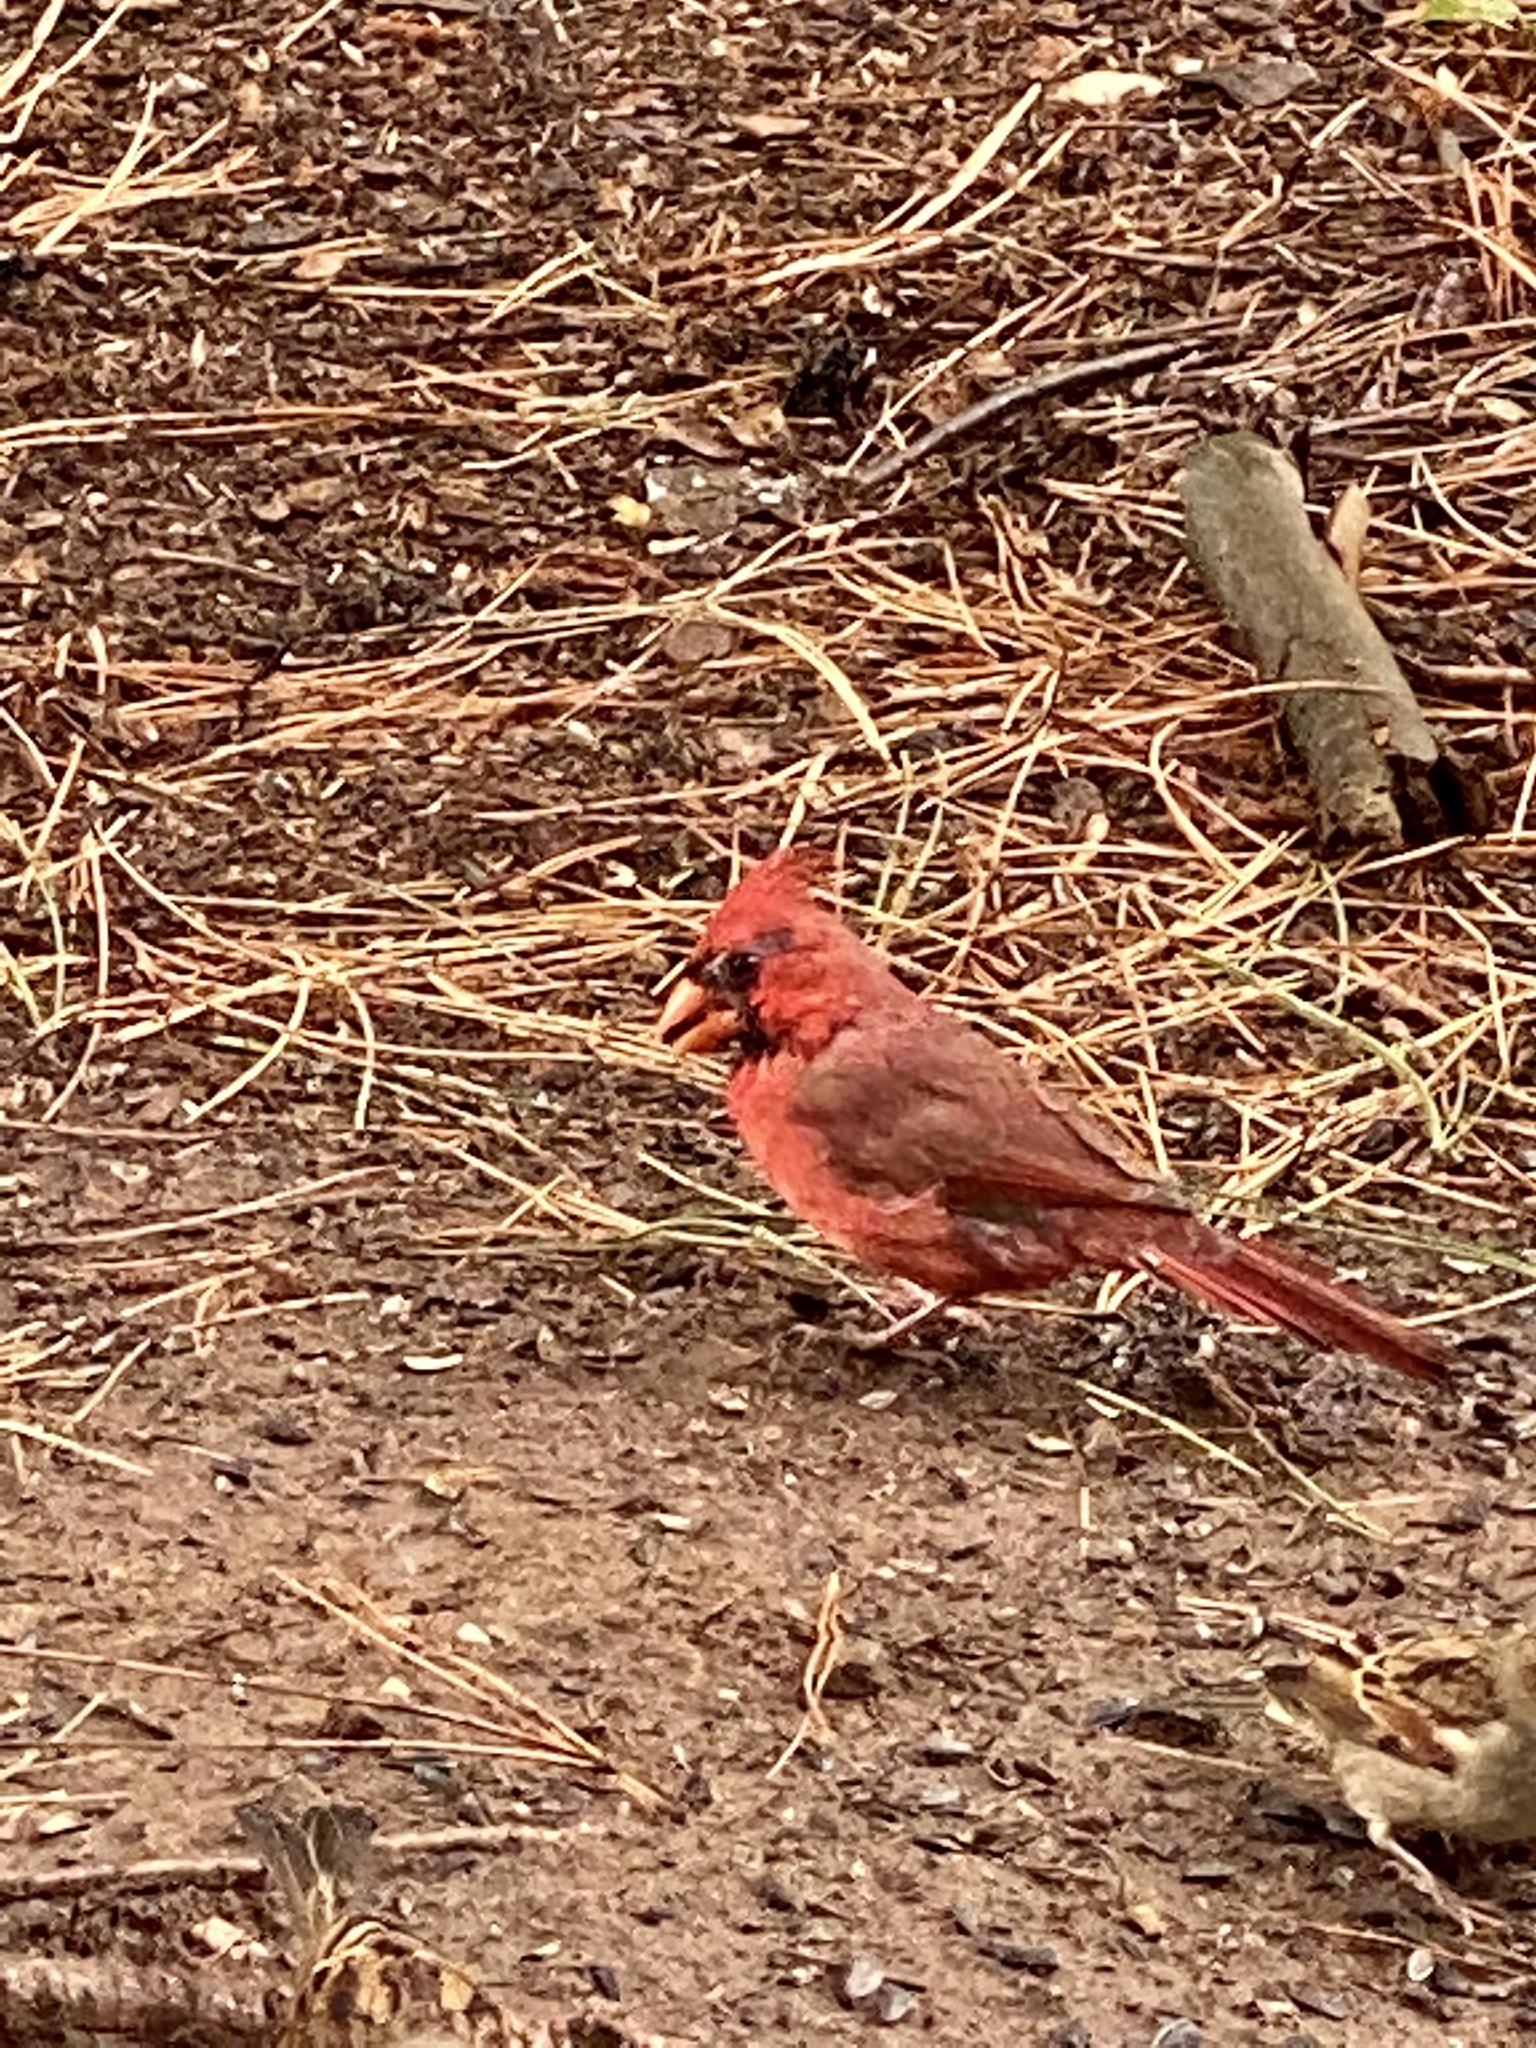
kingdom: Animalia
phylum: Chordata
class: Aves
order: Passeriformes
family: Cardinalidae
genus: Cardinalis
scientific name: Cardinalis cardinalis
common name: Northern cardinal
